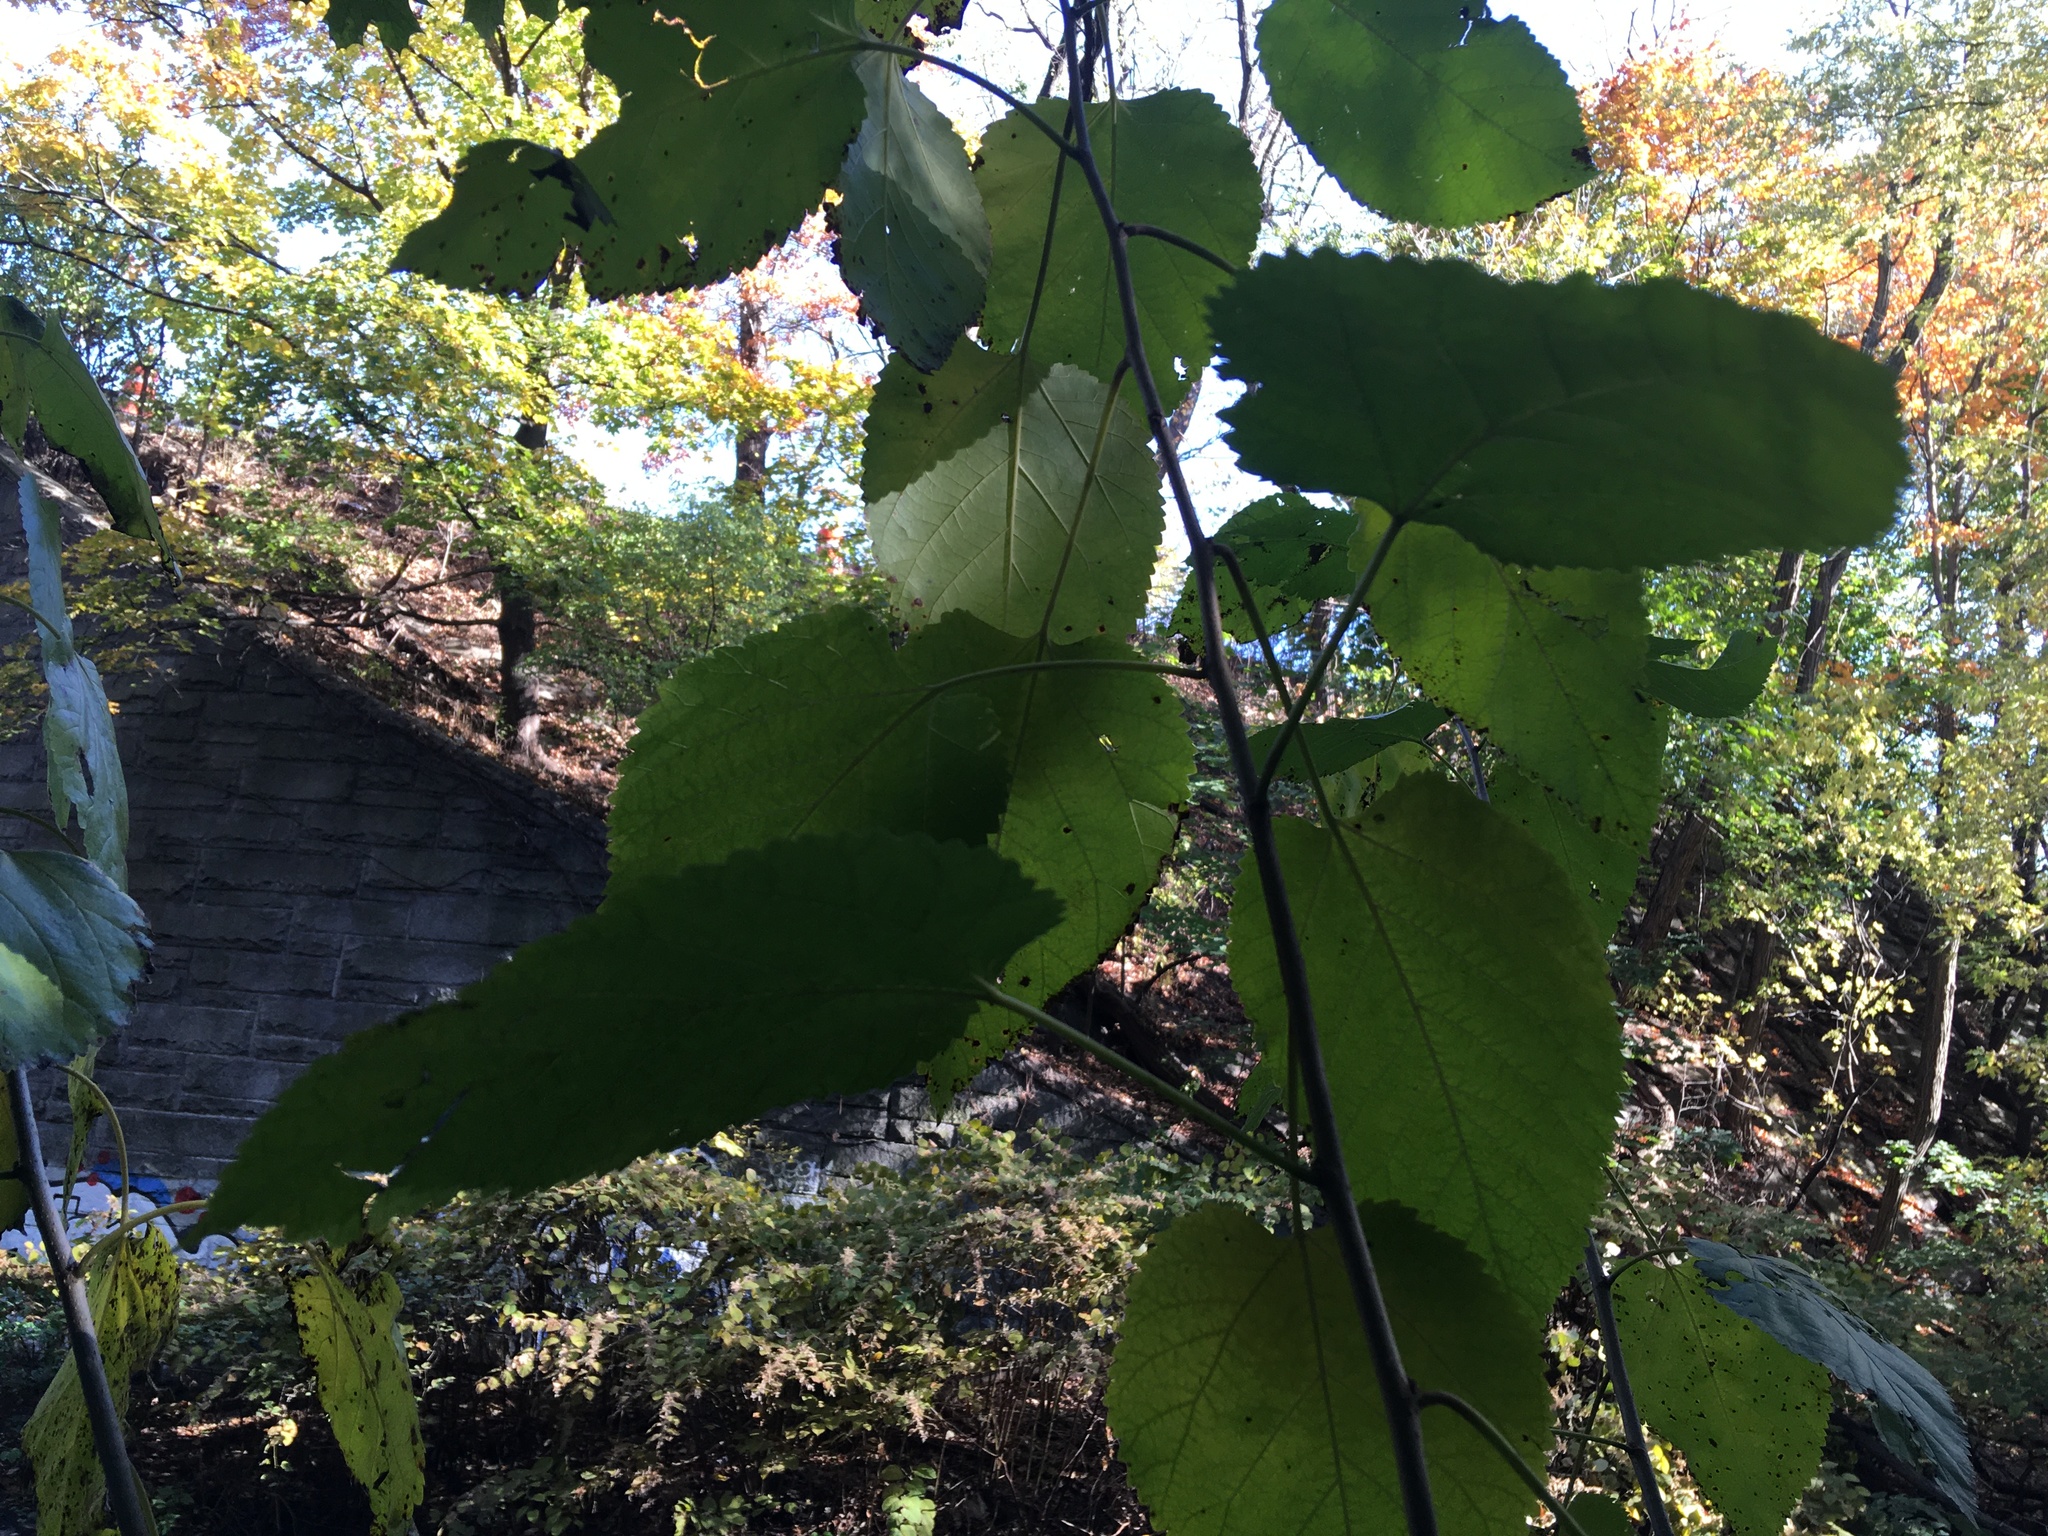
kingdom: Plantae
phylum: Tracheophyta
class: Magnoliopsida
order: Rosales
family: Moraceae
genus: Morus
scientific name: Morus alba
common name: White mulberry
